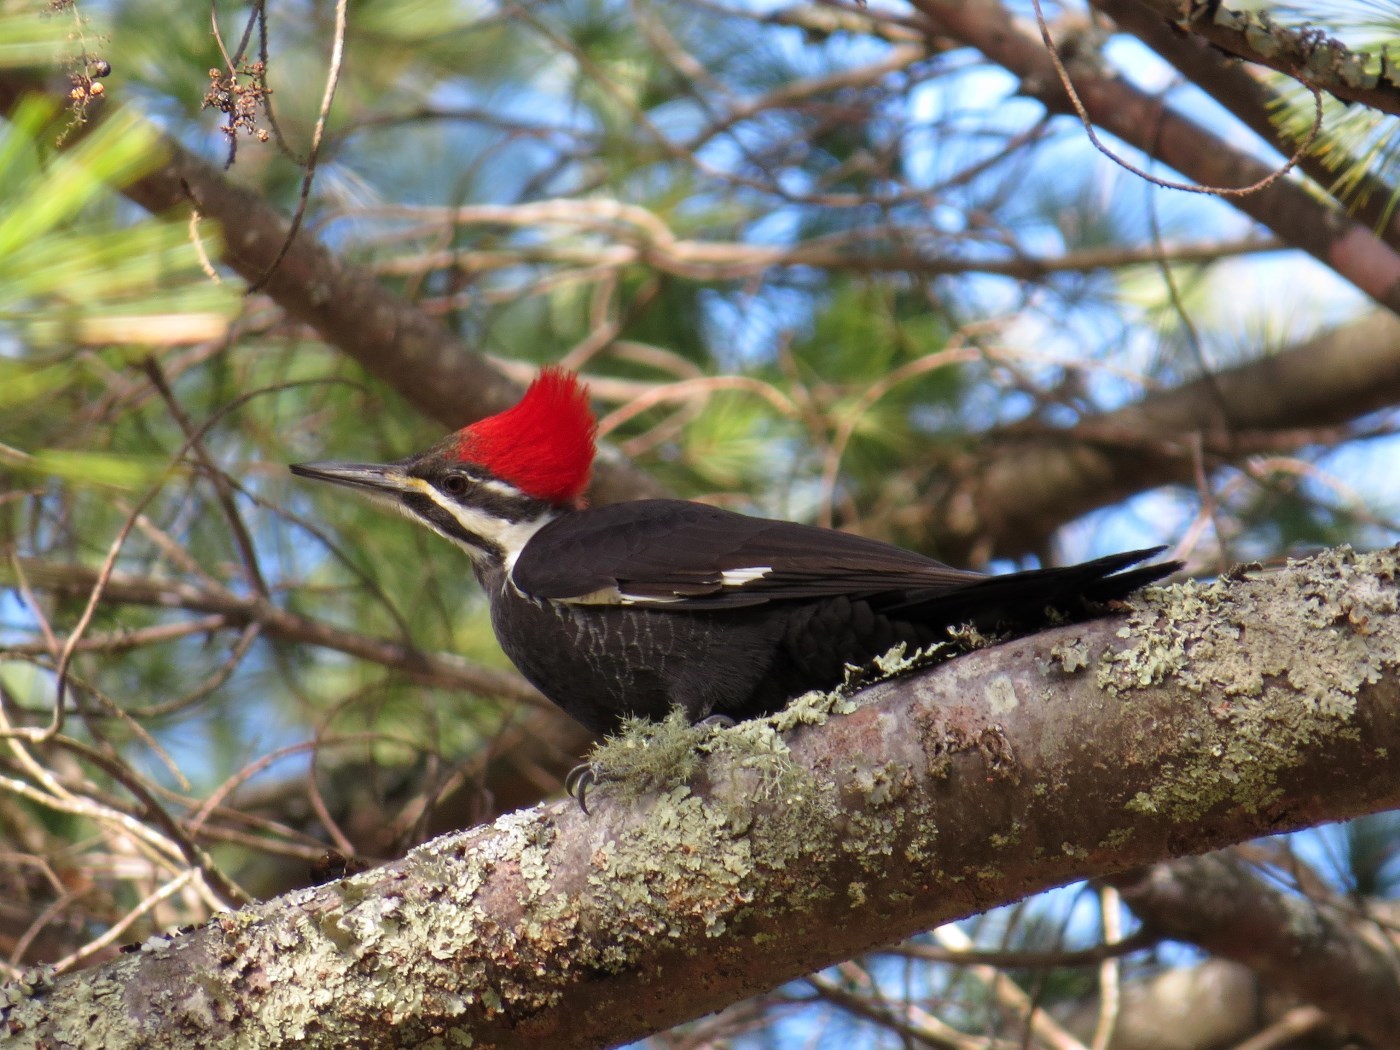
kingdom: Animalia
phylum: Chordata
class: Aves
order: Piciformes
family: Picidae
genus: Dryocopus
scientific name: Dryocopus pileatus
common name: Pileated woodpecker
